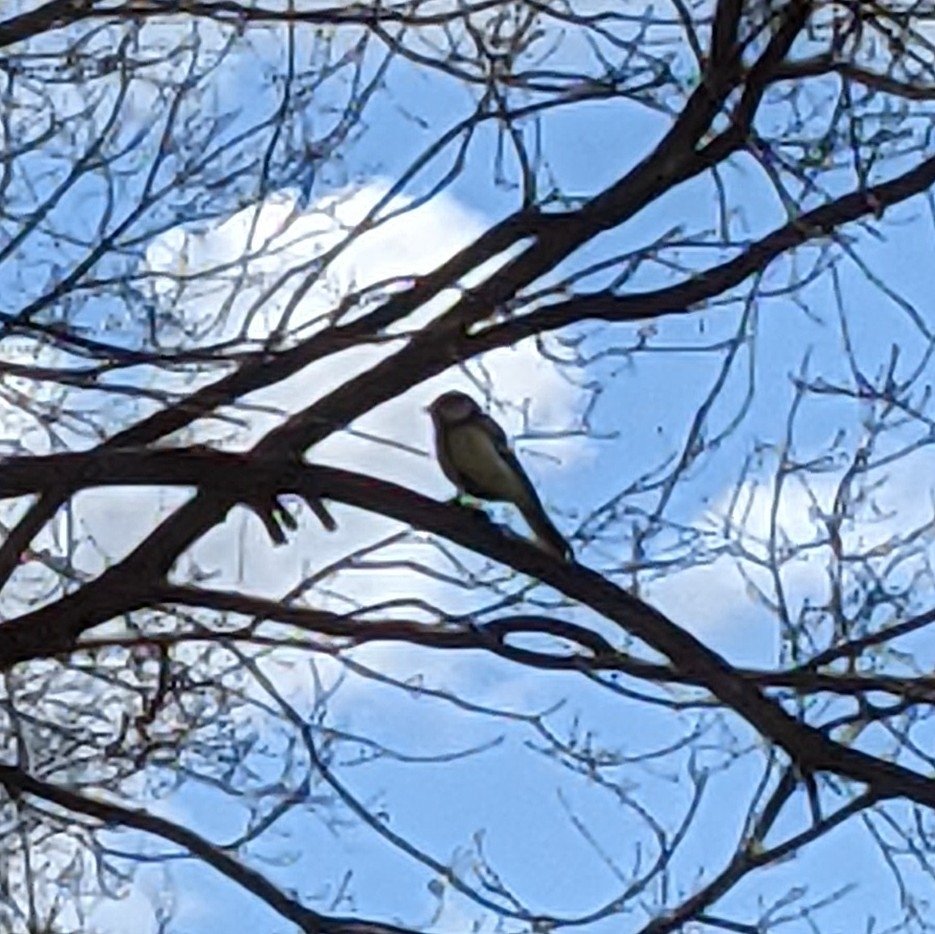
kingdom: Animalia
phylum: Chordata
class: Aves
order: Passeriformes
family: Paridae
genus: Parus
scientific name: Parus major
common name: Great tit
